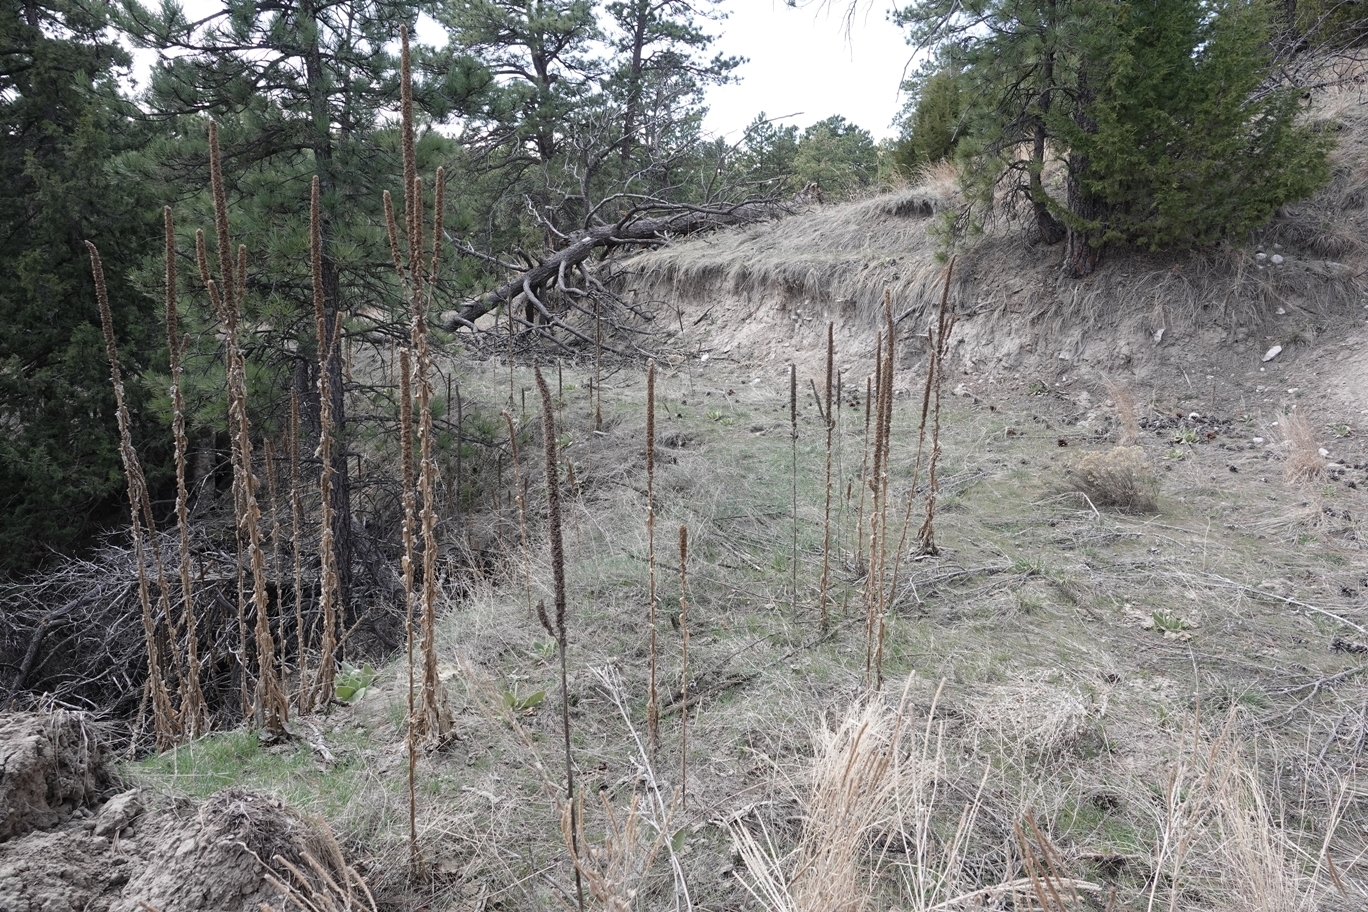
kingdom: Plantae
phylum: Tracheophyta
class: Magnoliopsida
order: Lamiales
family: Scrophulariaceae
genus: Verbascum
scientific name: Verbascum thapsus
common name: Common mullein
